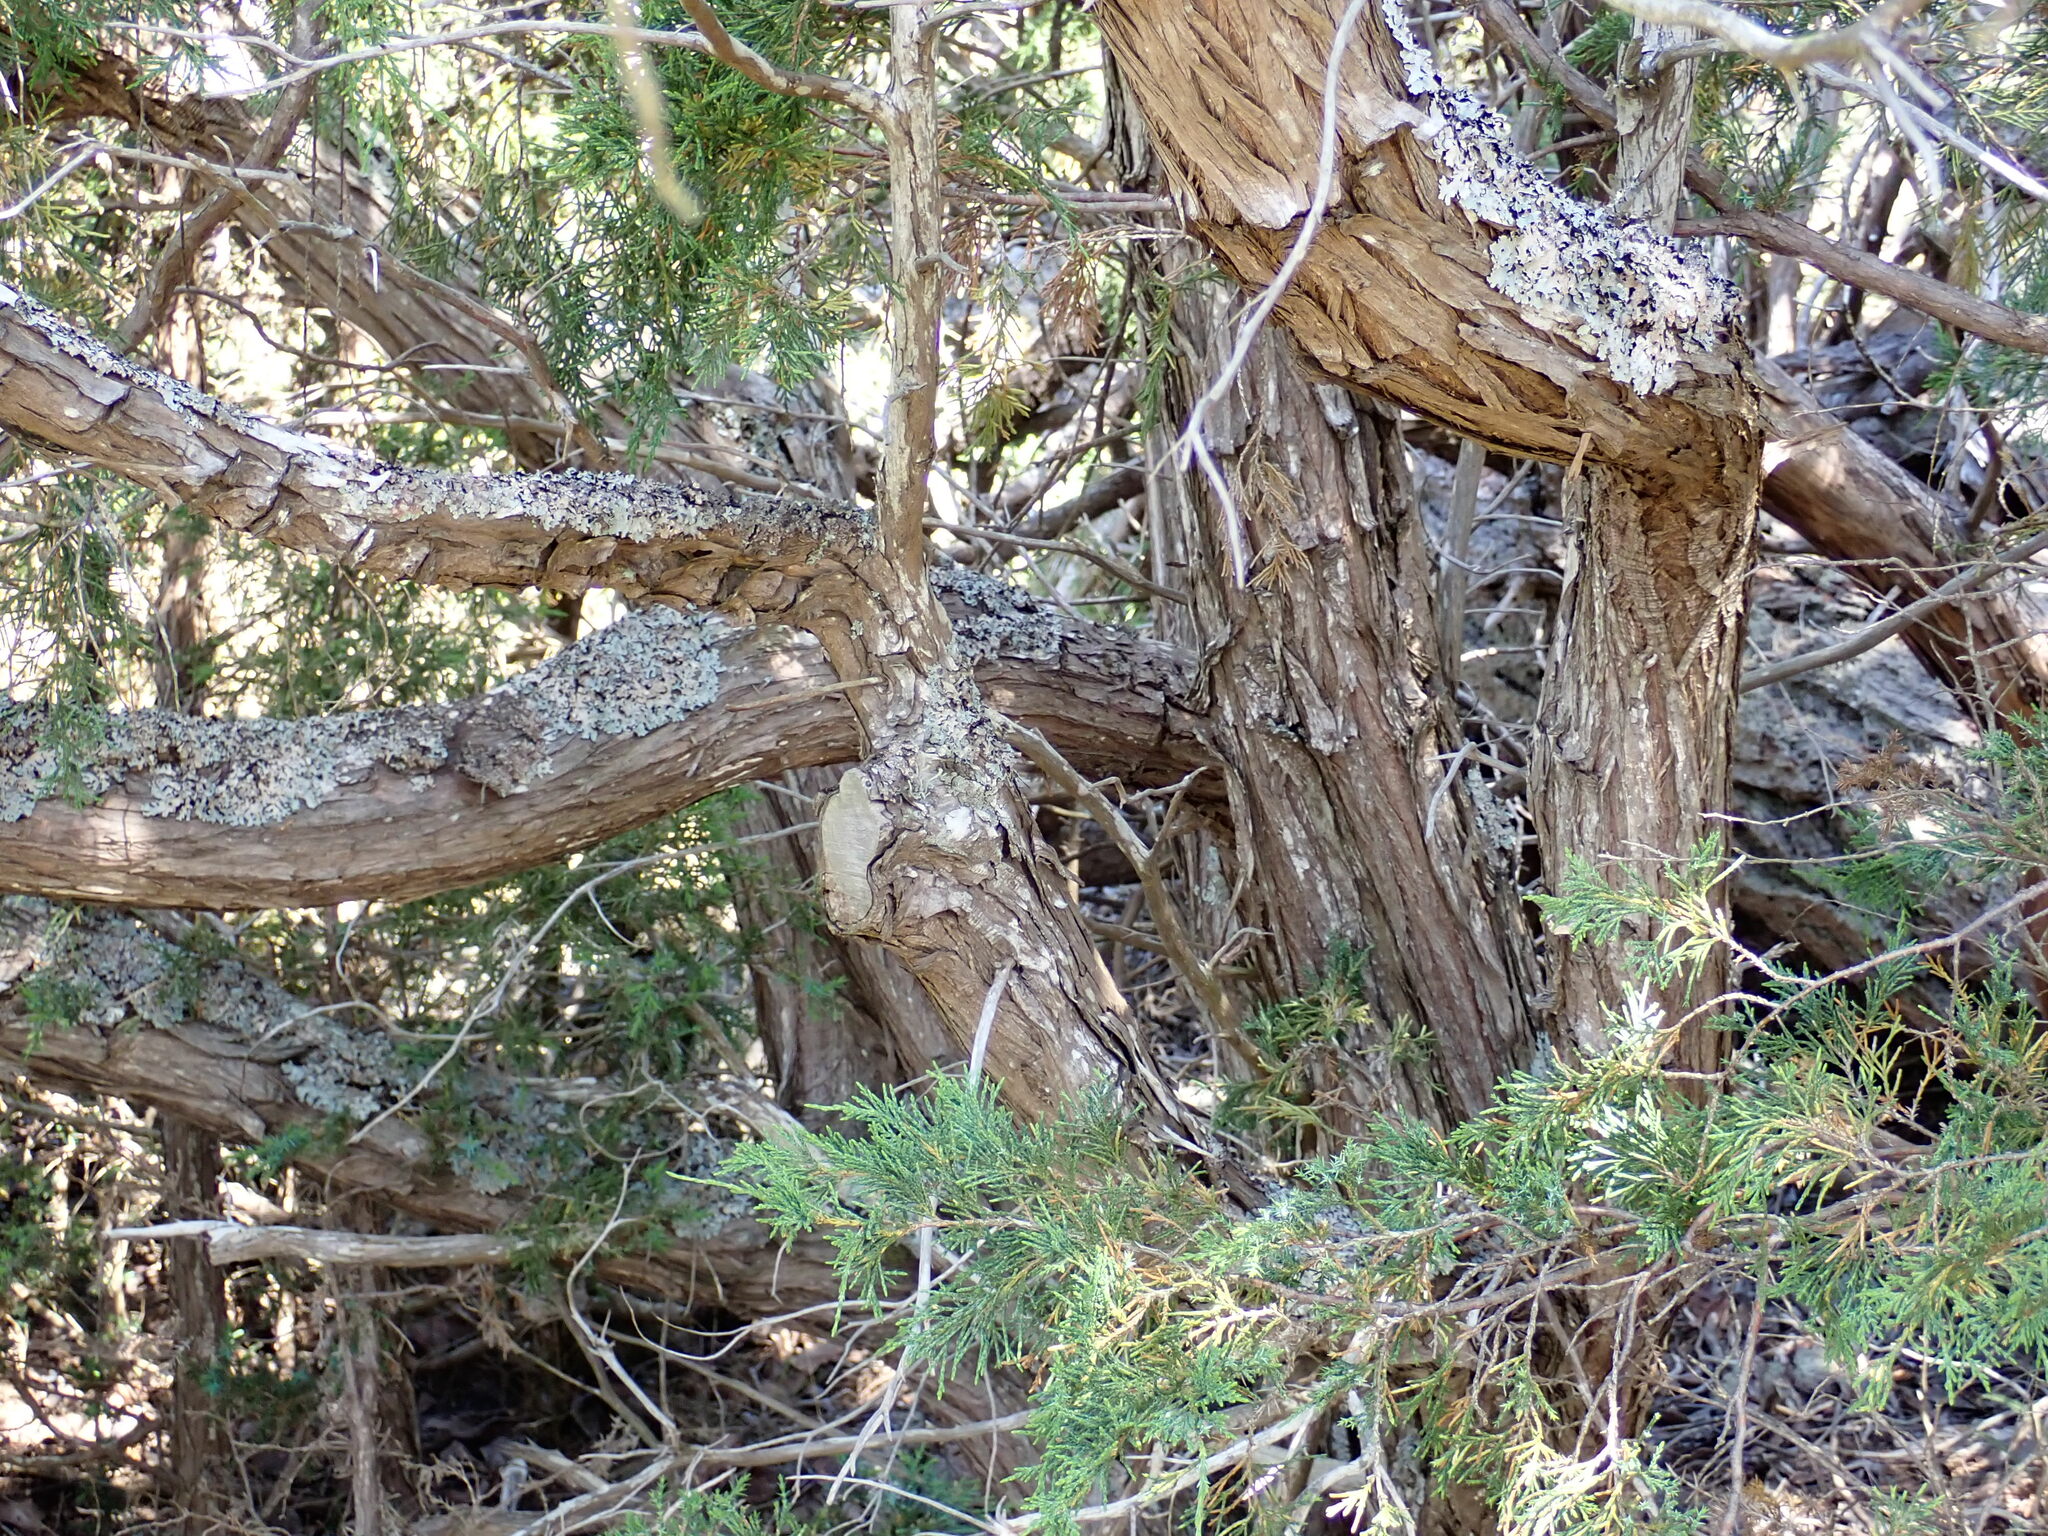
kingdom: Plantae
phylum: Tracheophyta
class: Pinopsida
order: Pinales
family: Cupressaceae
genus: Juniperus
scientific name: Juniperus scopulorum
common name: Rocky mountain juniper
